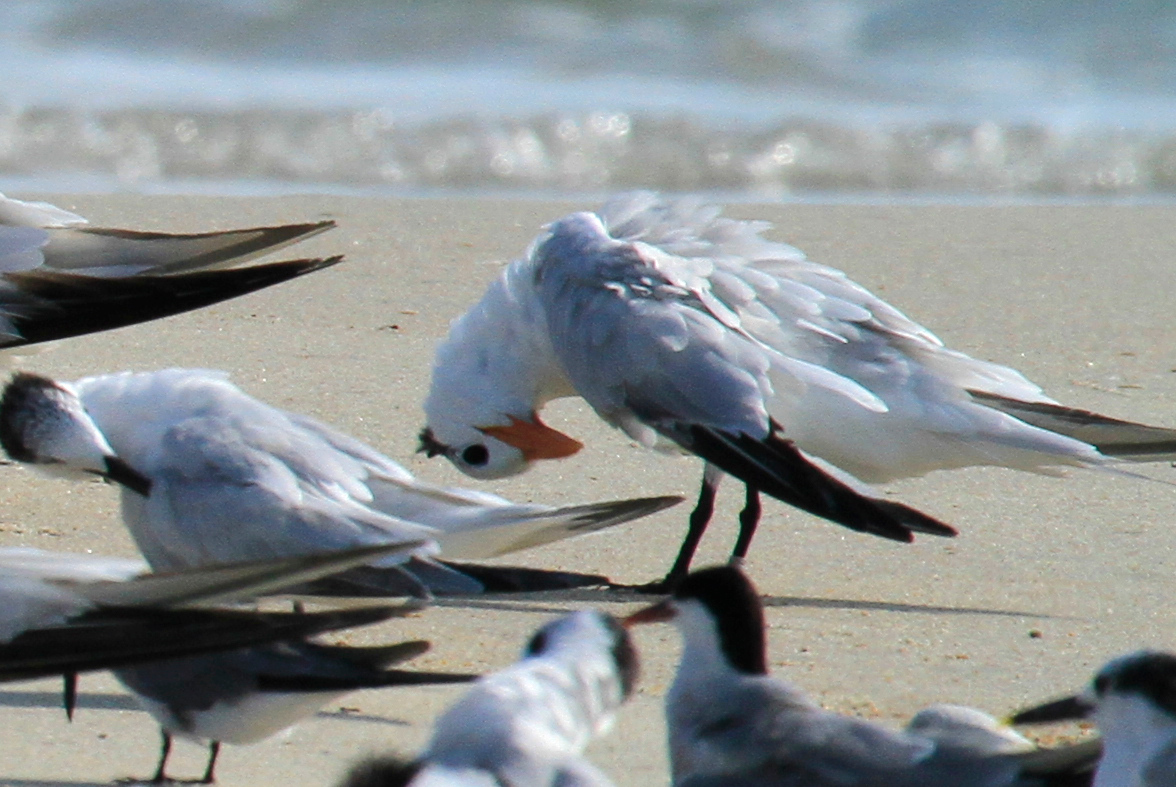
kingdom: Animalia
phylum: Chordata
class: Aves
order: Charadriiformes
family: Laridae
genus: Thalasseus
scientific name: Thalasseus maximus
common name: Royal tern
